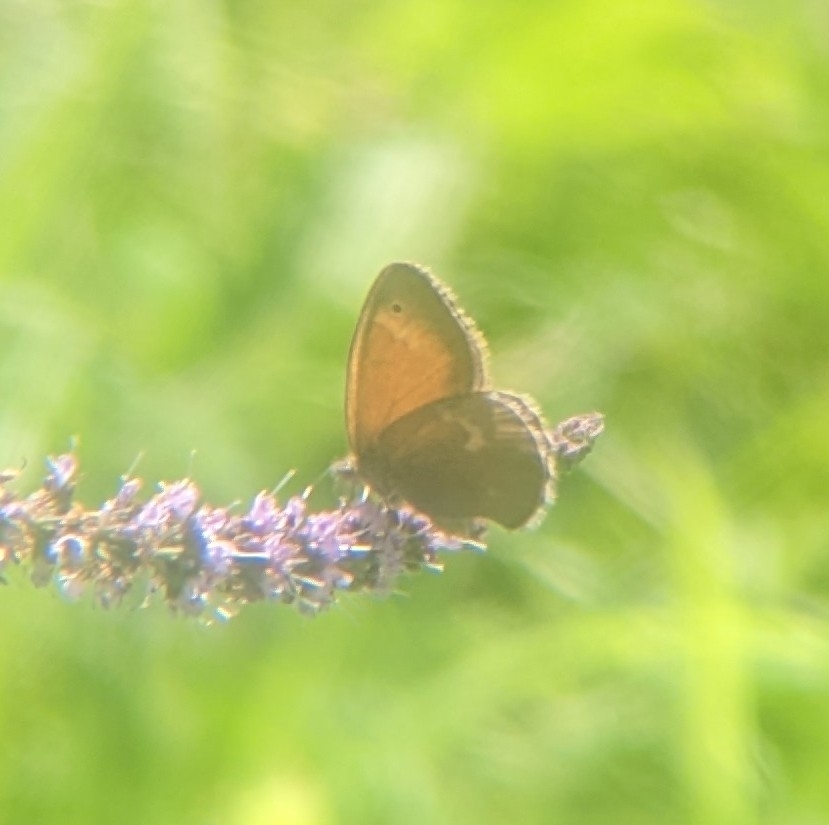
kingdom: Animalia
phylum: Arthropoda
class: Insecta
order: Lepidoptera
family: Nymphalidae
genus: Coenonympha
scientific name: Coenonympha california
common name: Common ringlet
